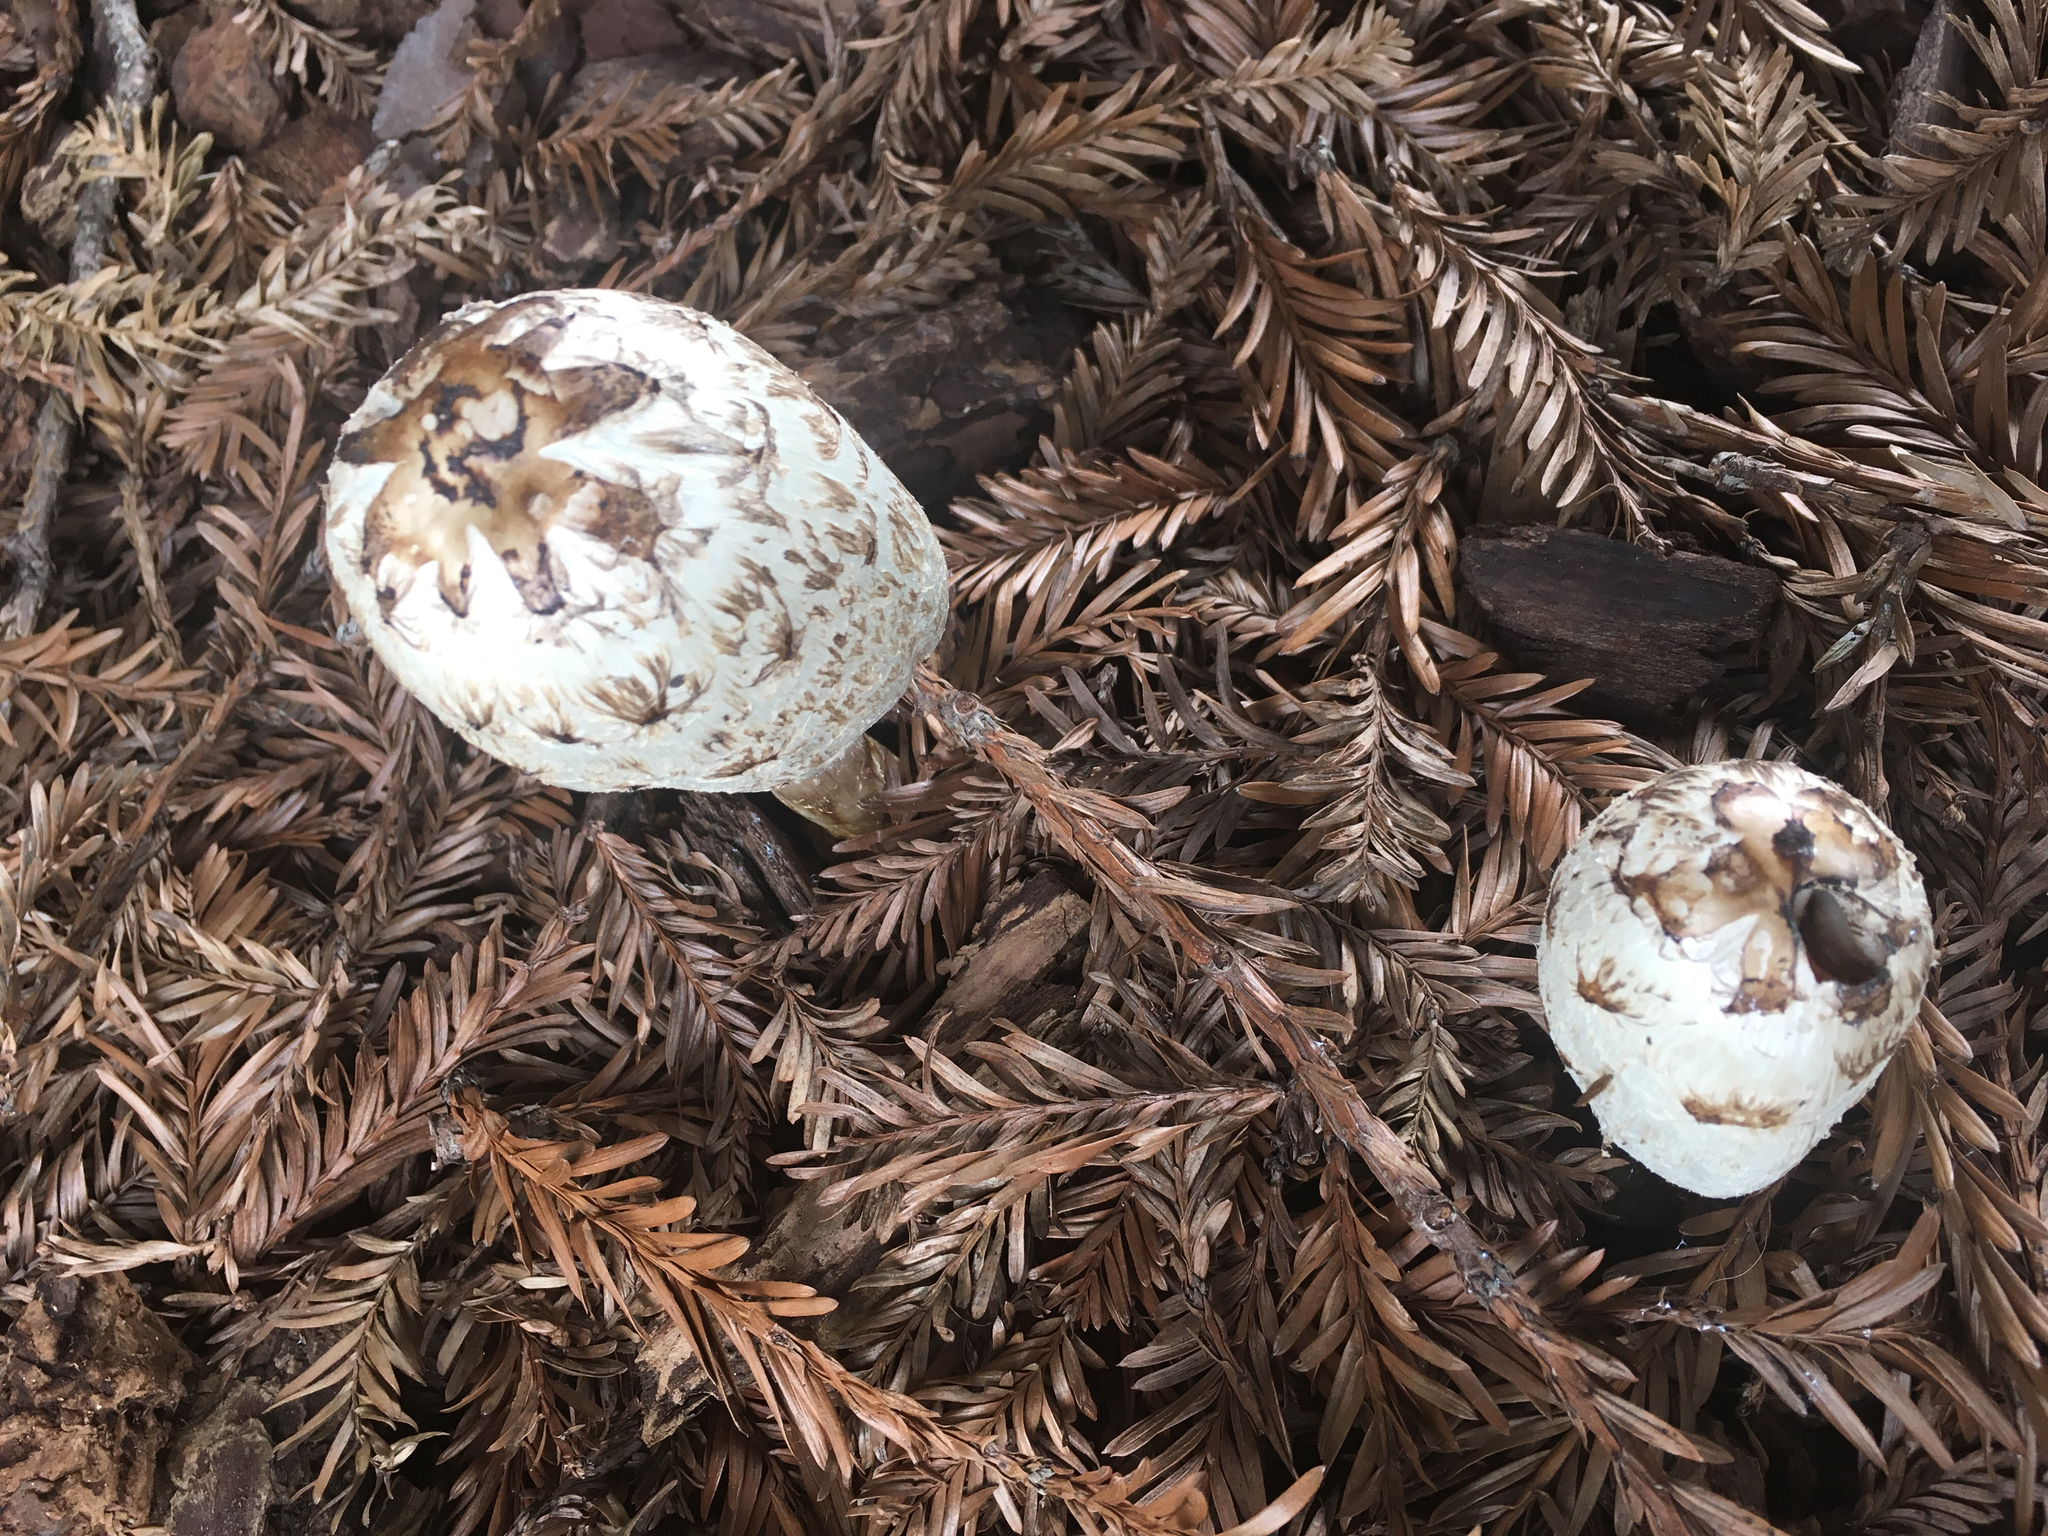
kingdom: Fungi
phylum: Basidiomycota
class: Agaricomycetes
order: Agaricales
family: Agaricaceae
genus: Coprinus
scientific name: Coprinus comatus
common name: Lawyer's wig
